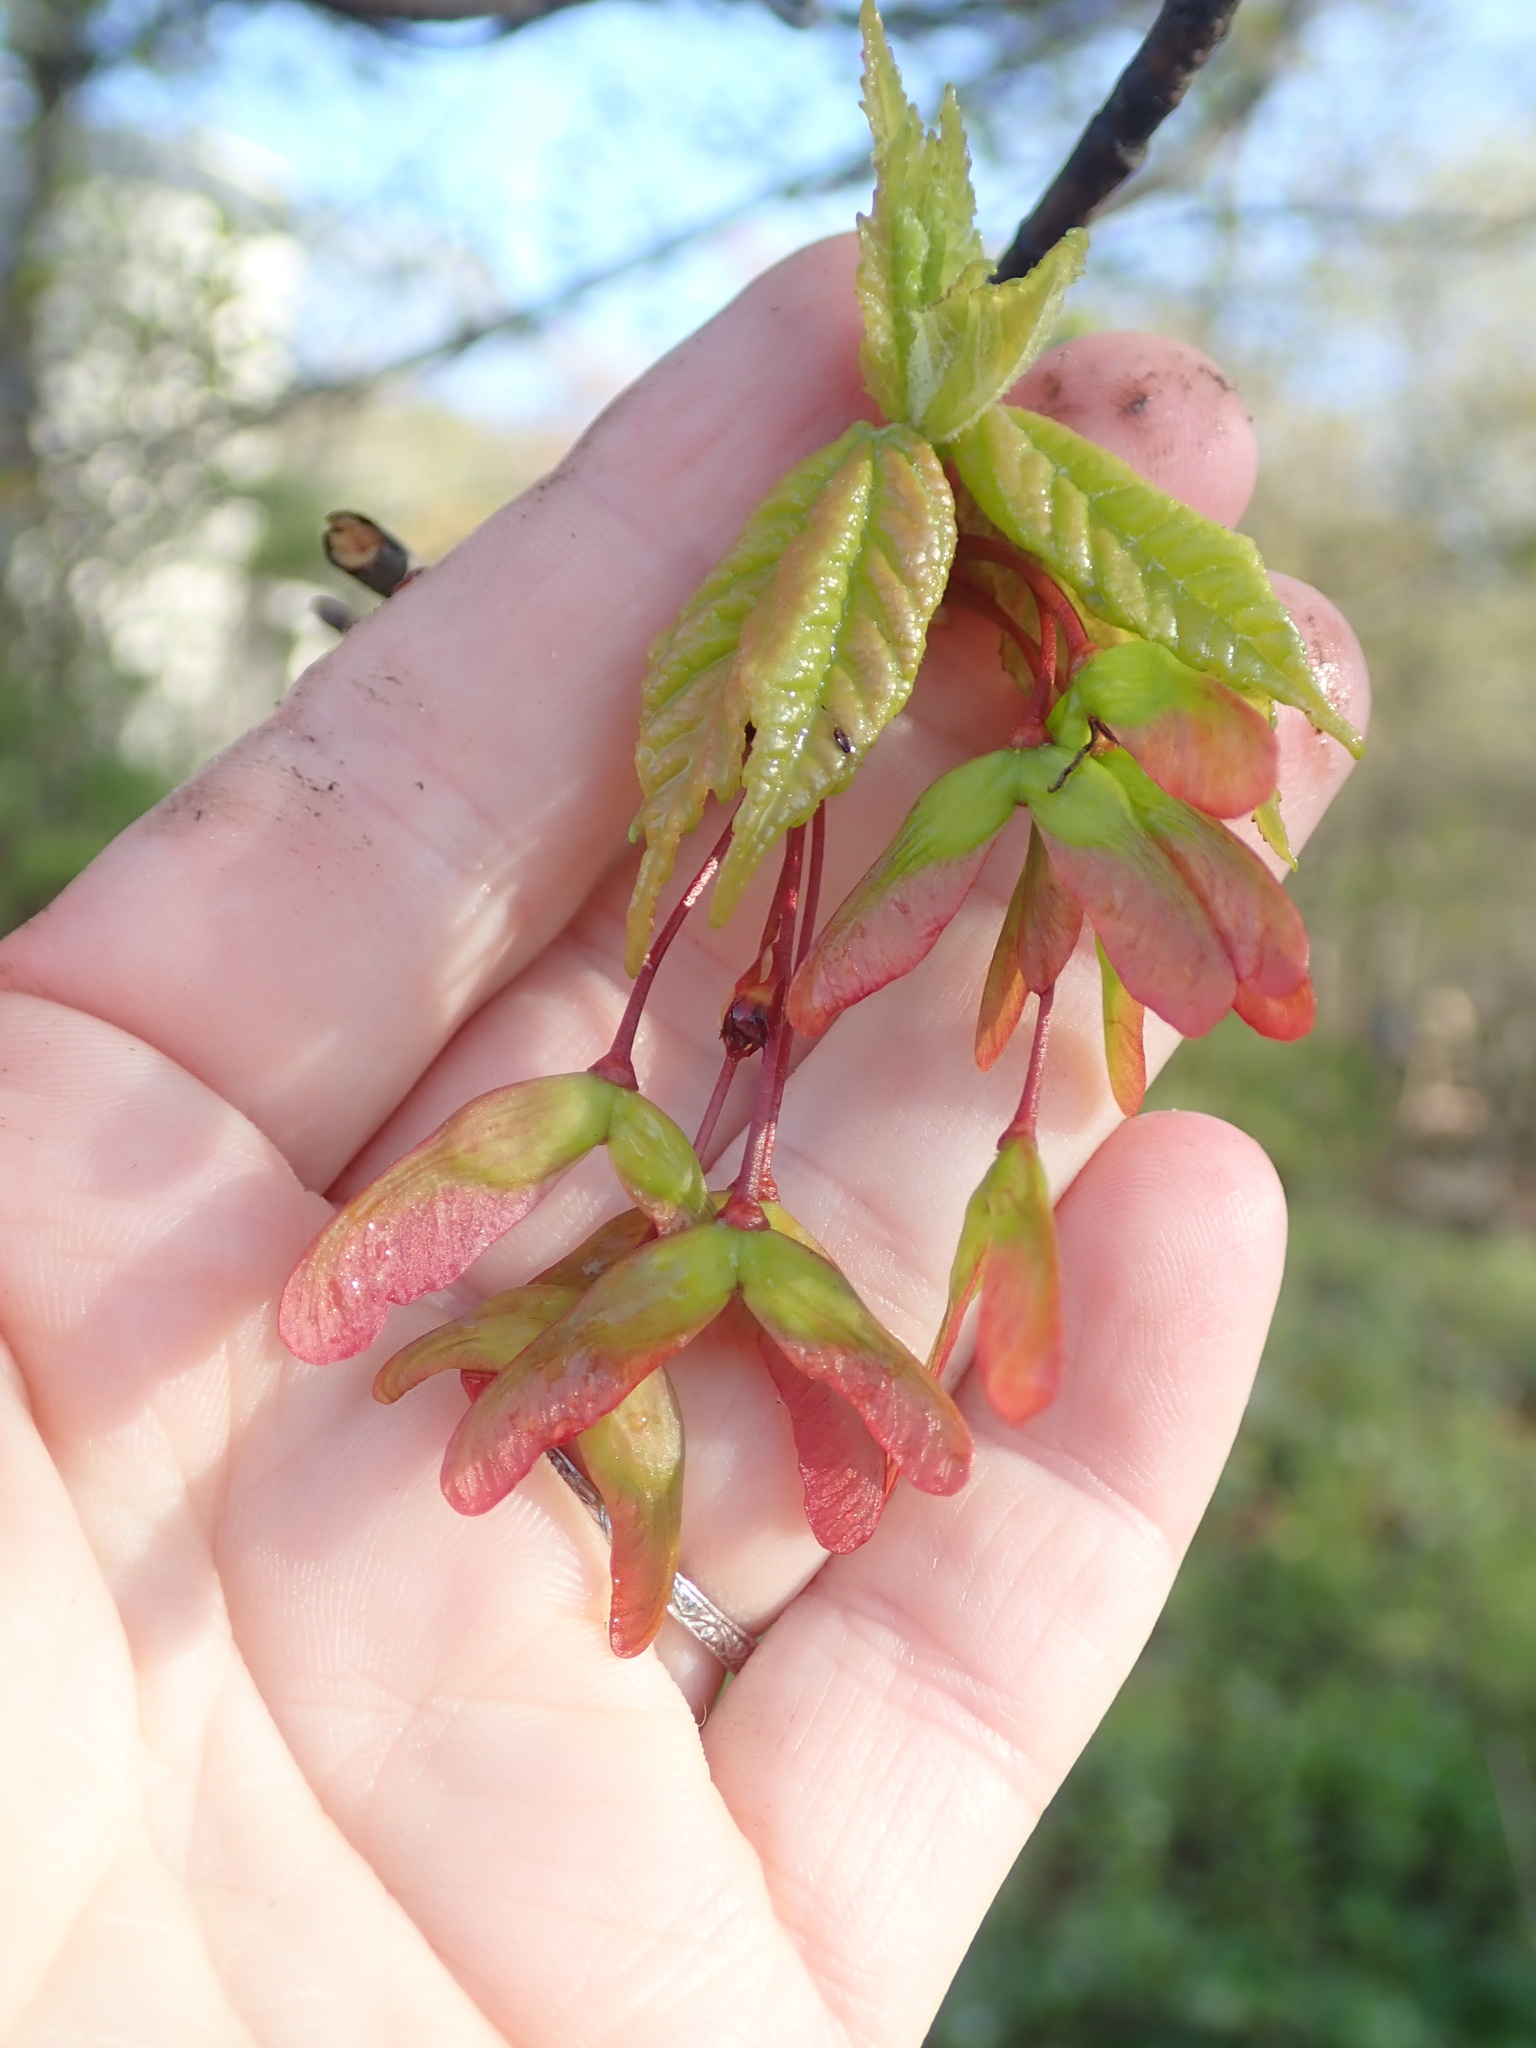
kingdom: Plantae
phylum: Tracheophyta
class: Magnoliopsida
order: Sapindales
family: Sapindaceae
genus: Acer
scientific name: Acer rubrum
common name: Red maple
